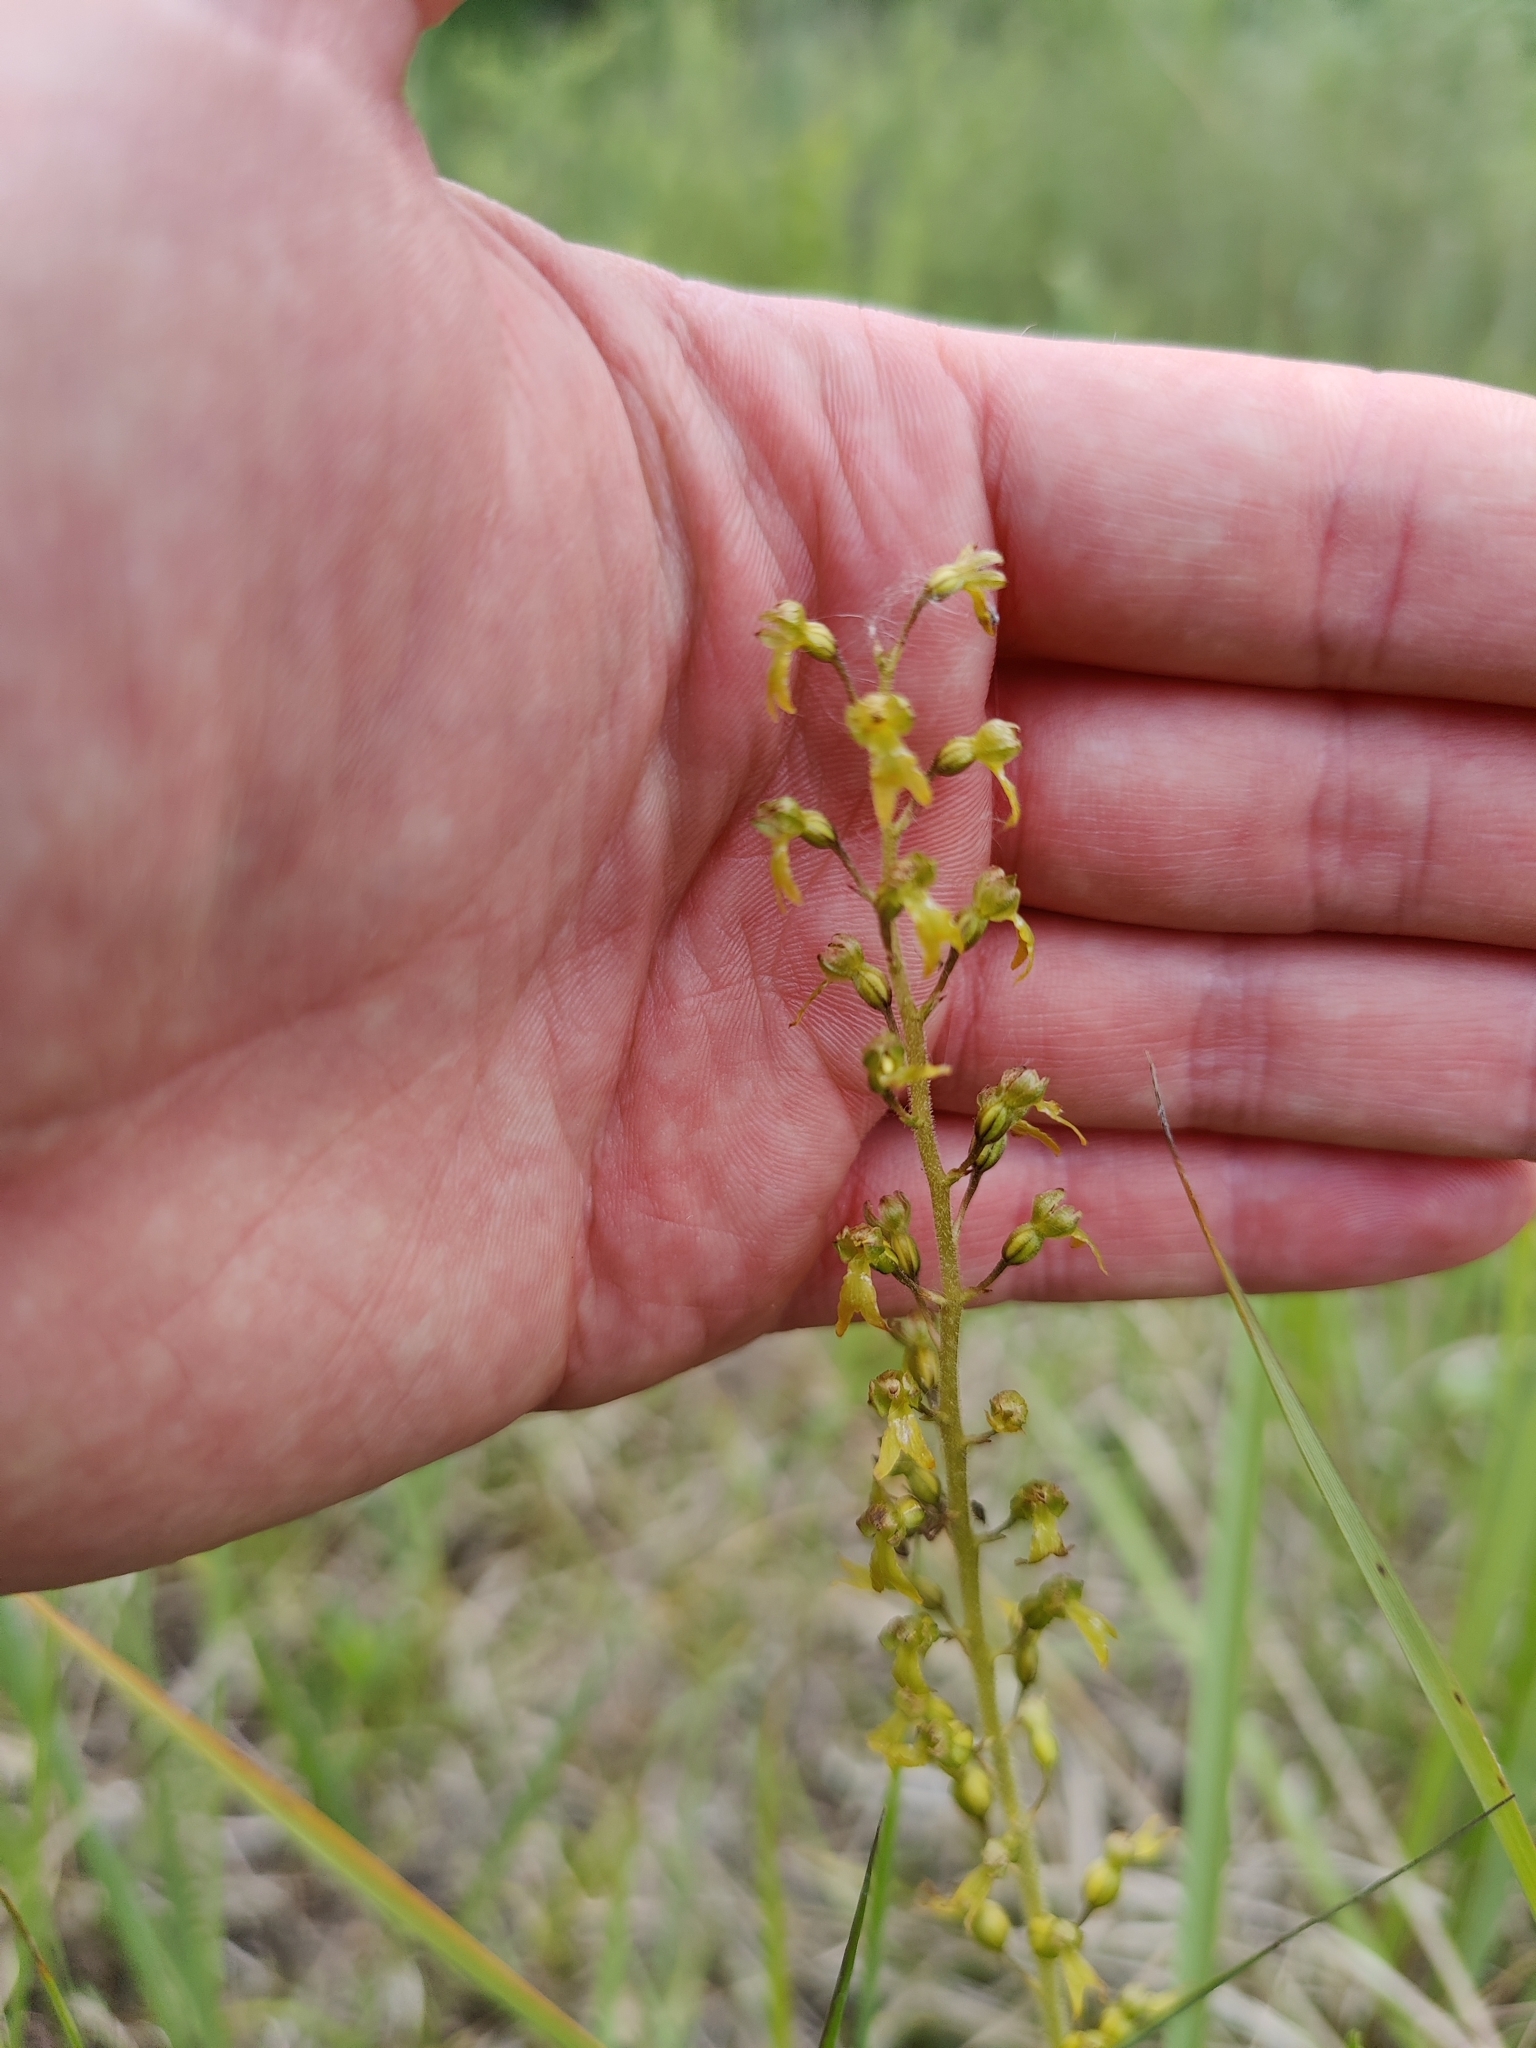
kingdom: Plantae
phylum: Tracheophyta
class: Liliopsida
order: Asparagales
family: Orchidaceae
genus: Neottia
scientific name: Neottia ovata
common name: Common twayblade
